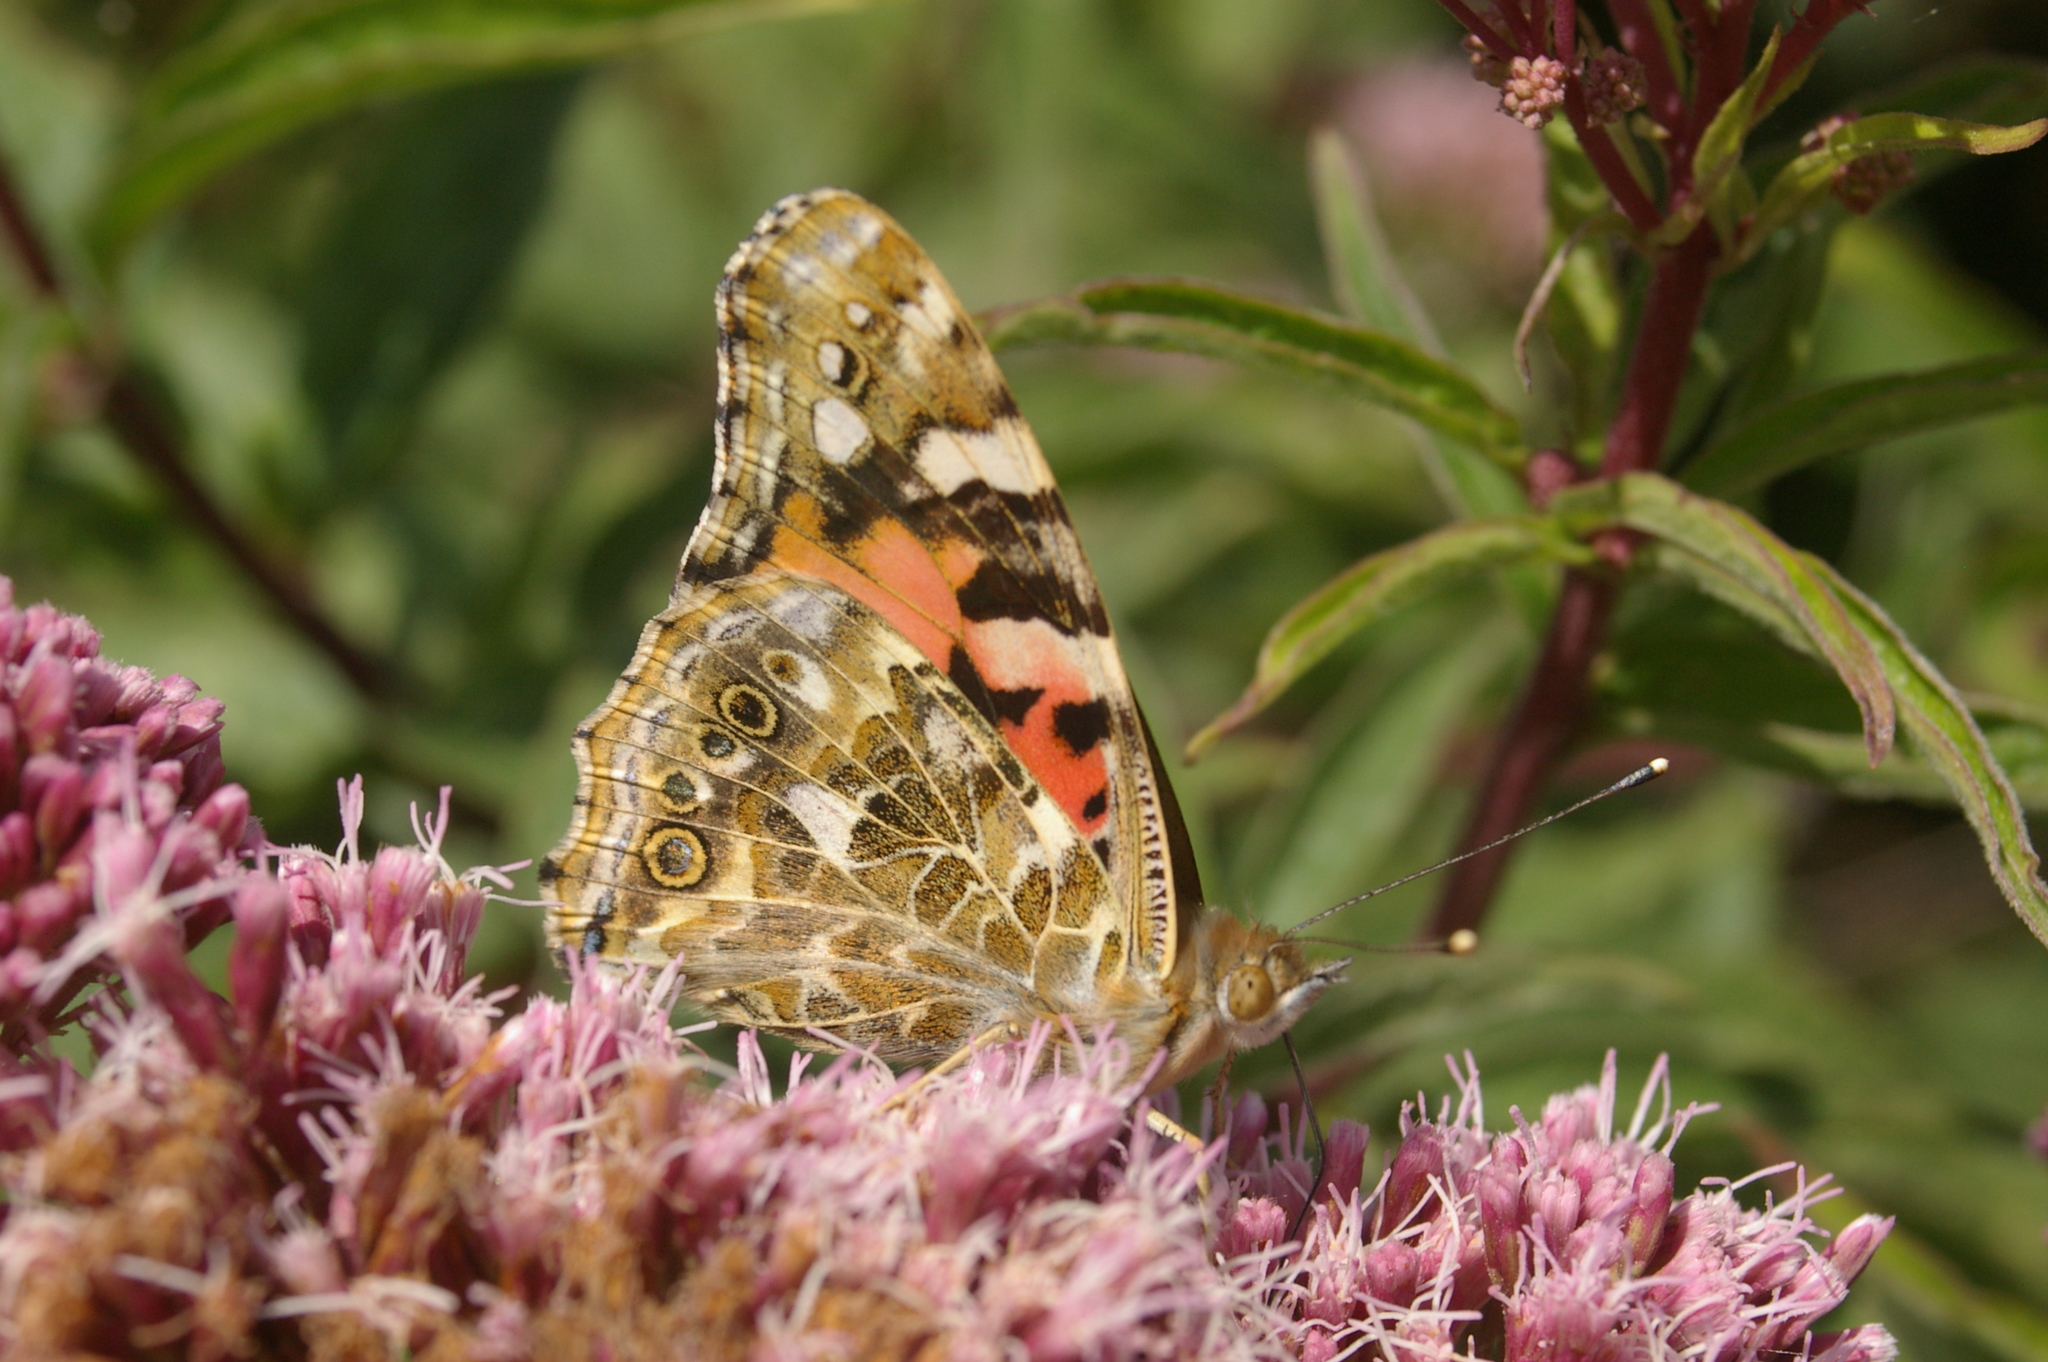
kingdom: Animalia
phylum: Arthropoda
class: Insecta
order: Lepidoptera
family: Nymphalidae
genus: Vanessa
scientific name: Vanessa cardui
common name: Painted lady
